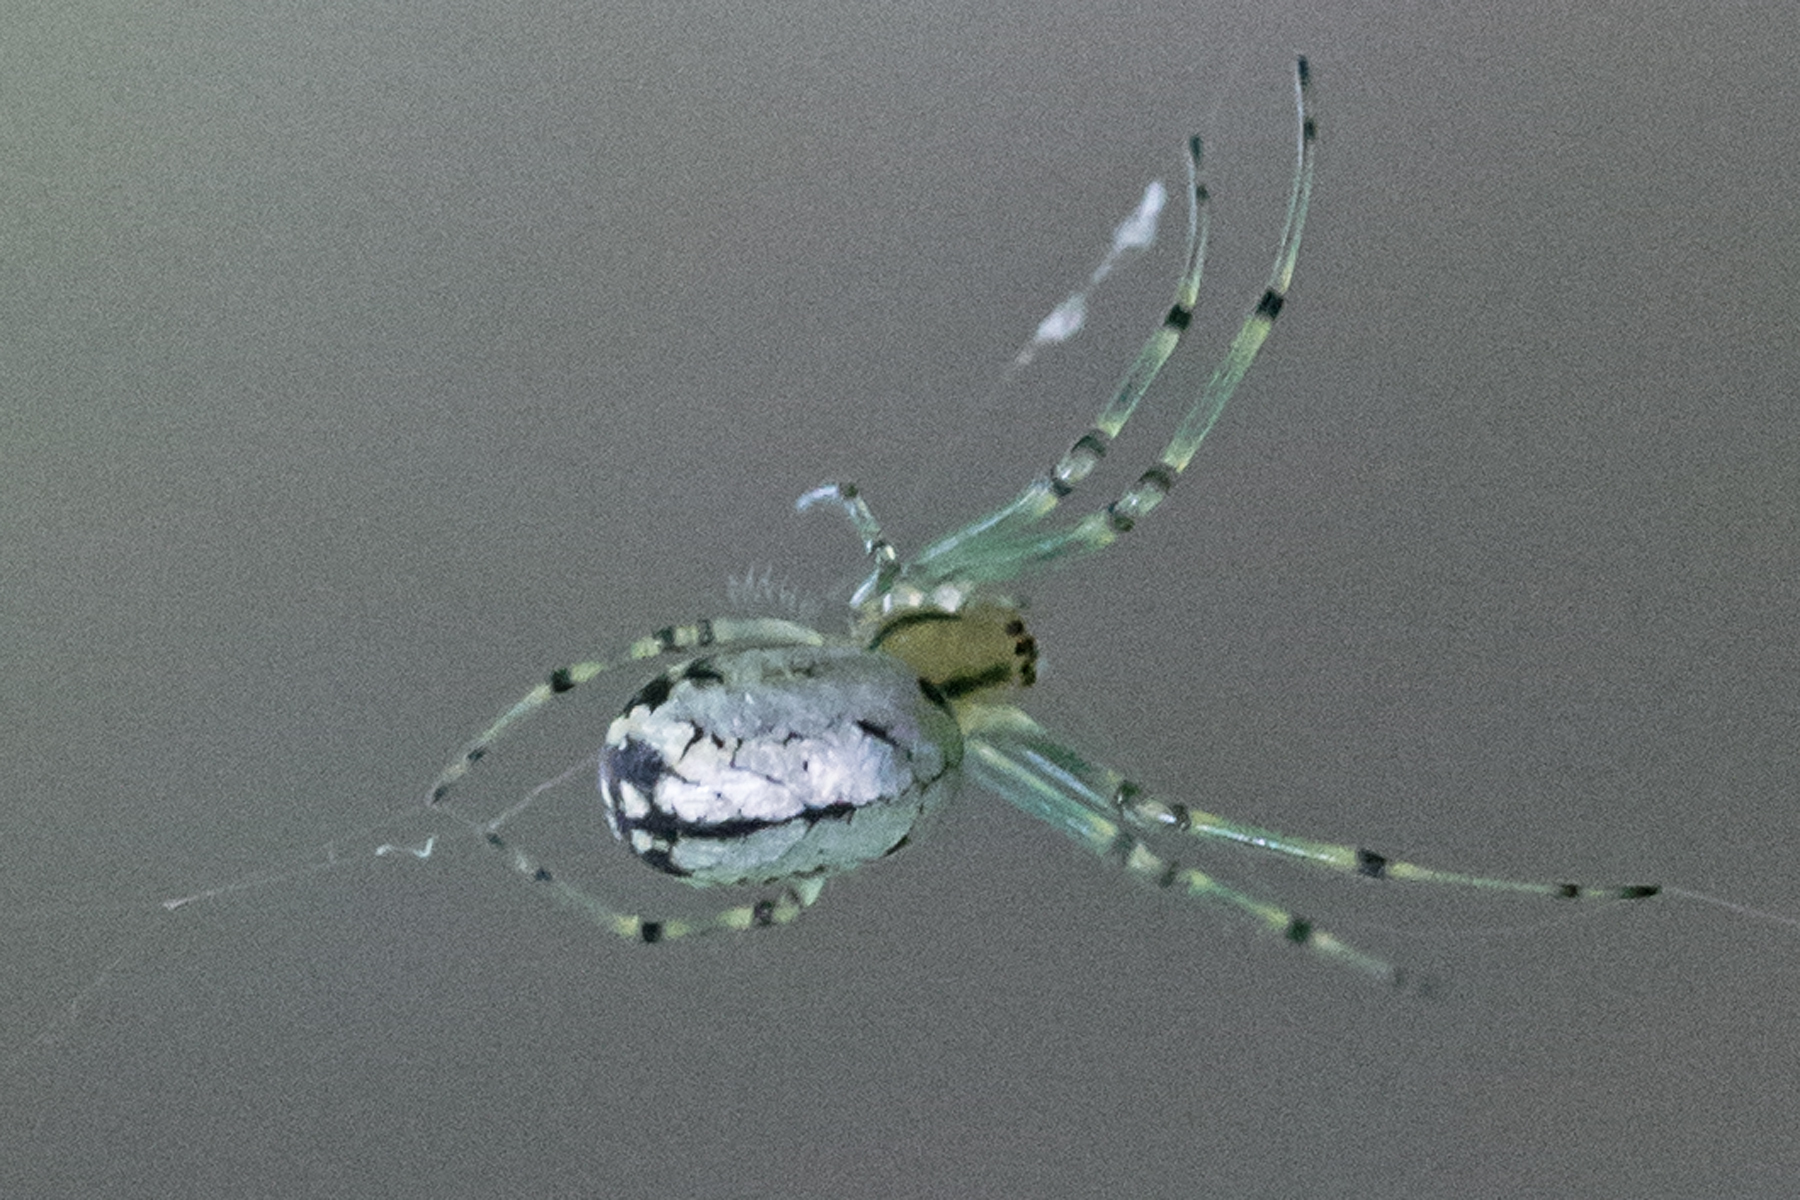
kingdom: Animalia
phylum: Arthropoda
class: Arachnida
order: Araneae
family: Tetragnathidae
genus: Leucauge
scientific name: Leucauge venusta
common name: Longjawed orb weavers
